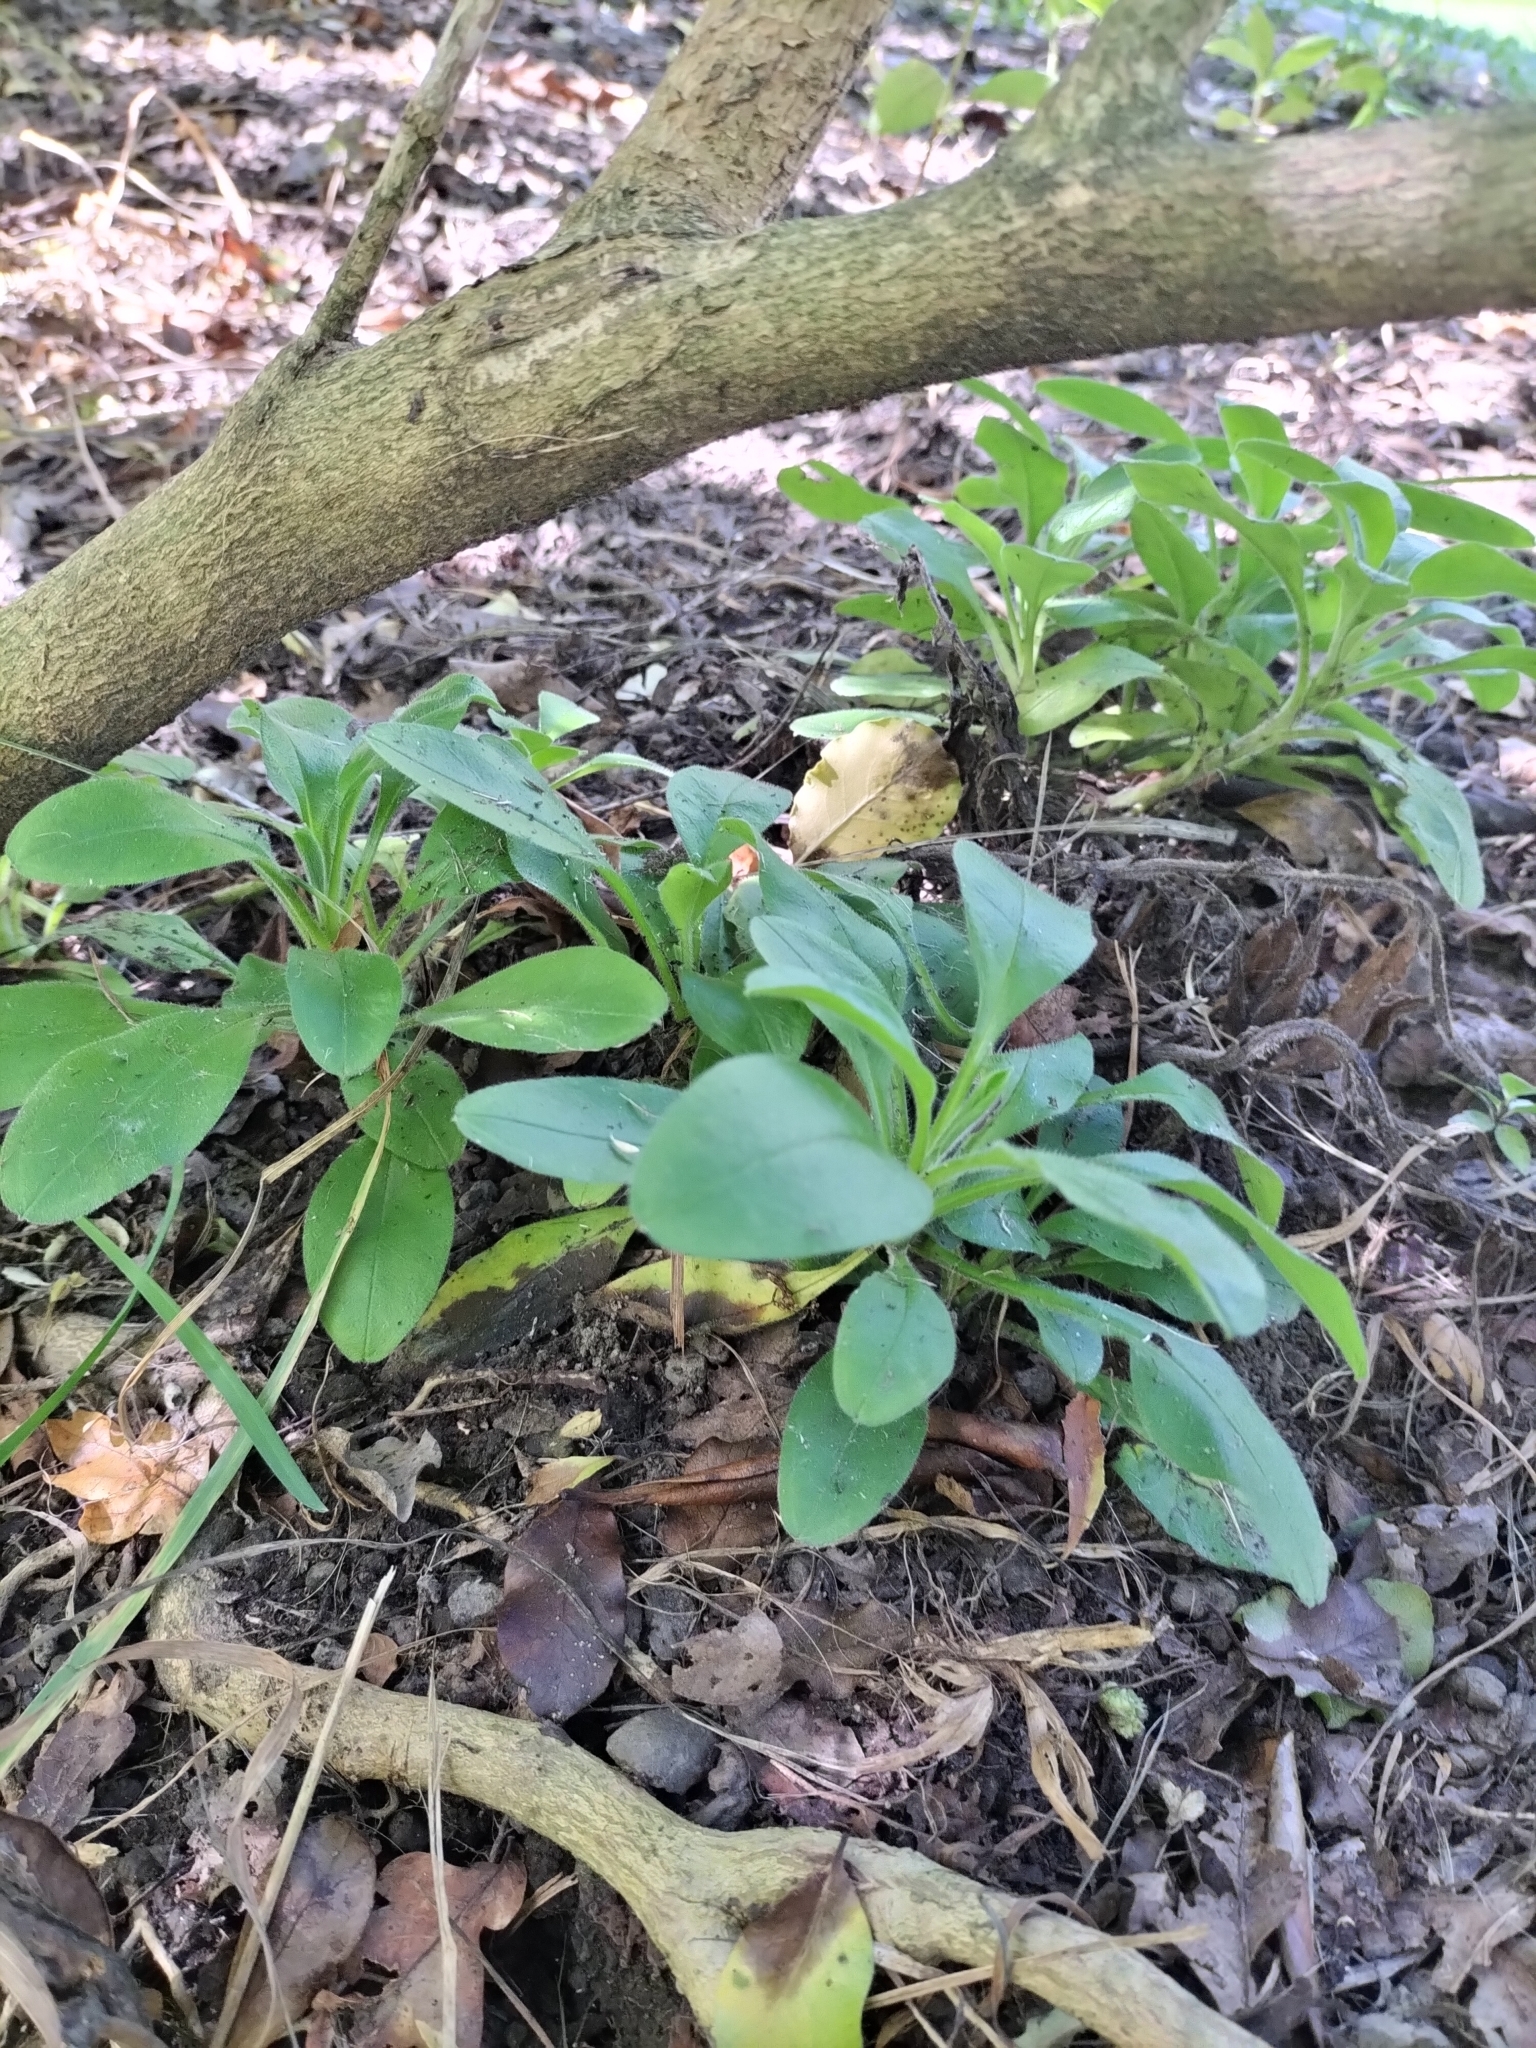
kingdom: Plantae
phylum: Tracheophyta
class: Magnoliopsida
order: Boraginales
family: Boraginaceae
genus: Myosotis
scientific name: Myosotis sylvatica
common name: Wood forget-me-not
